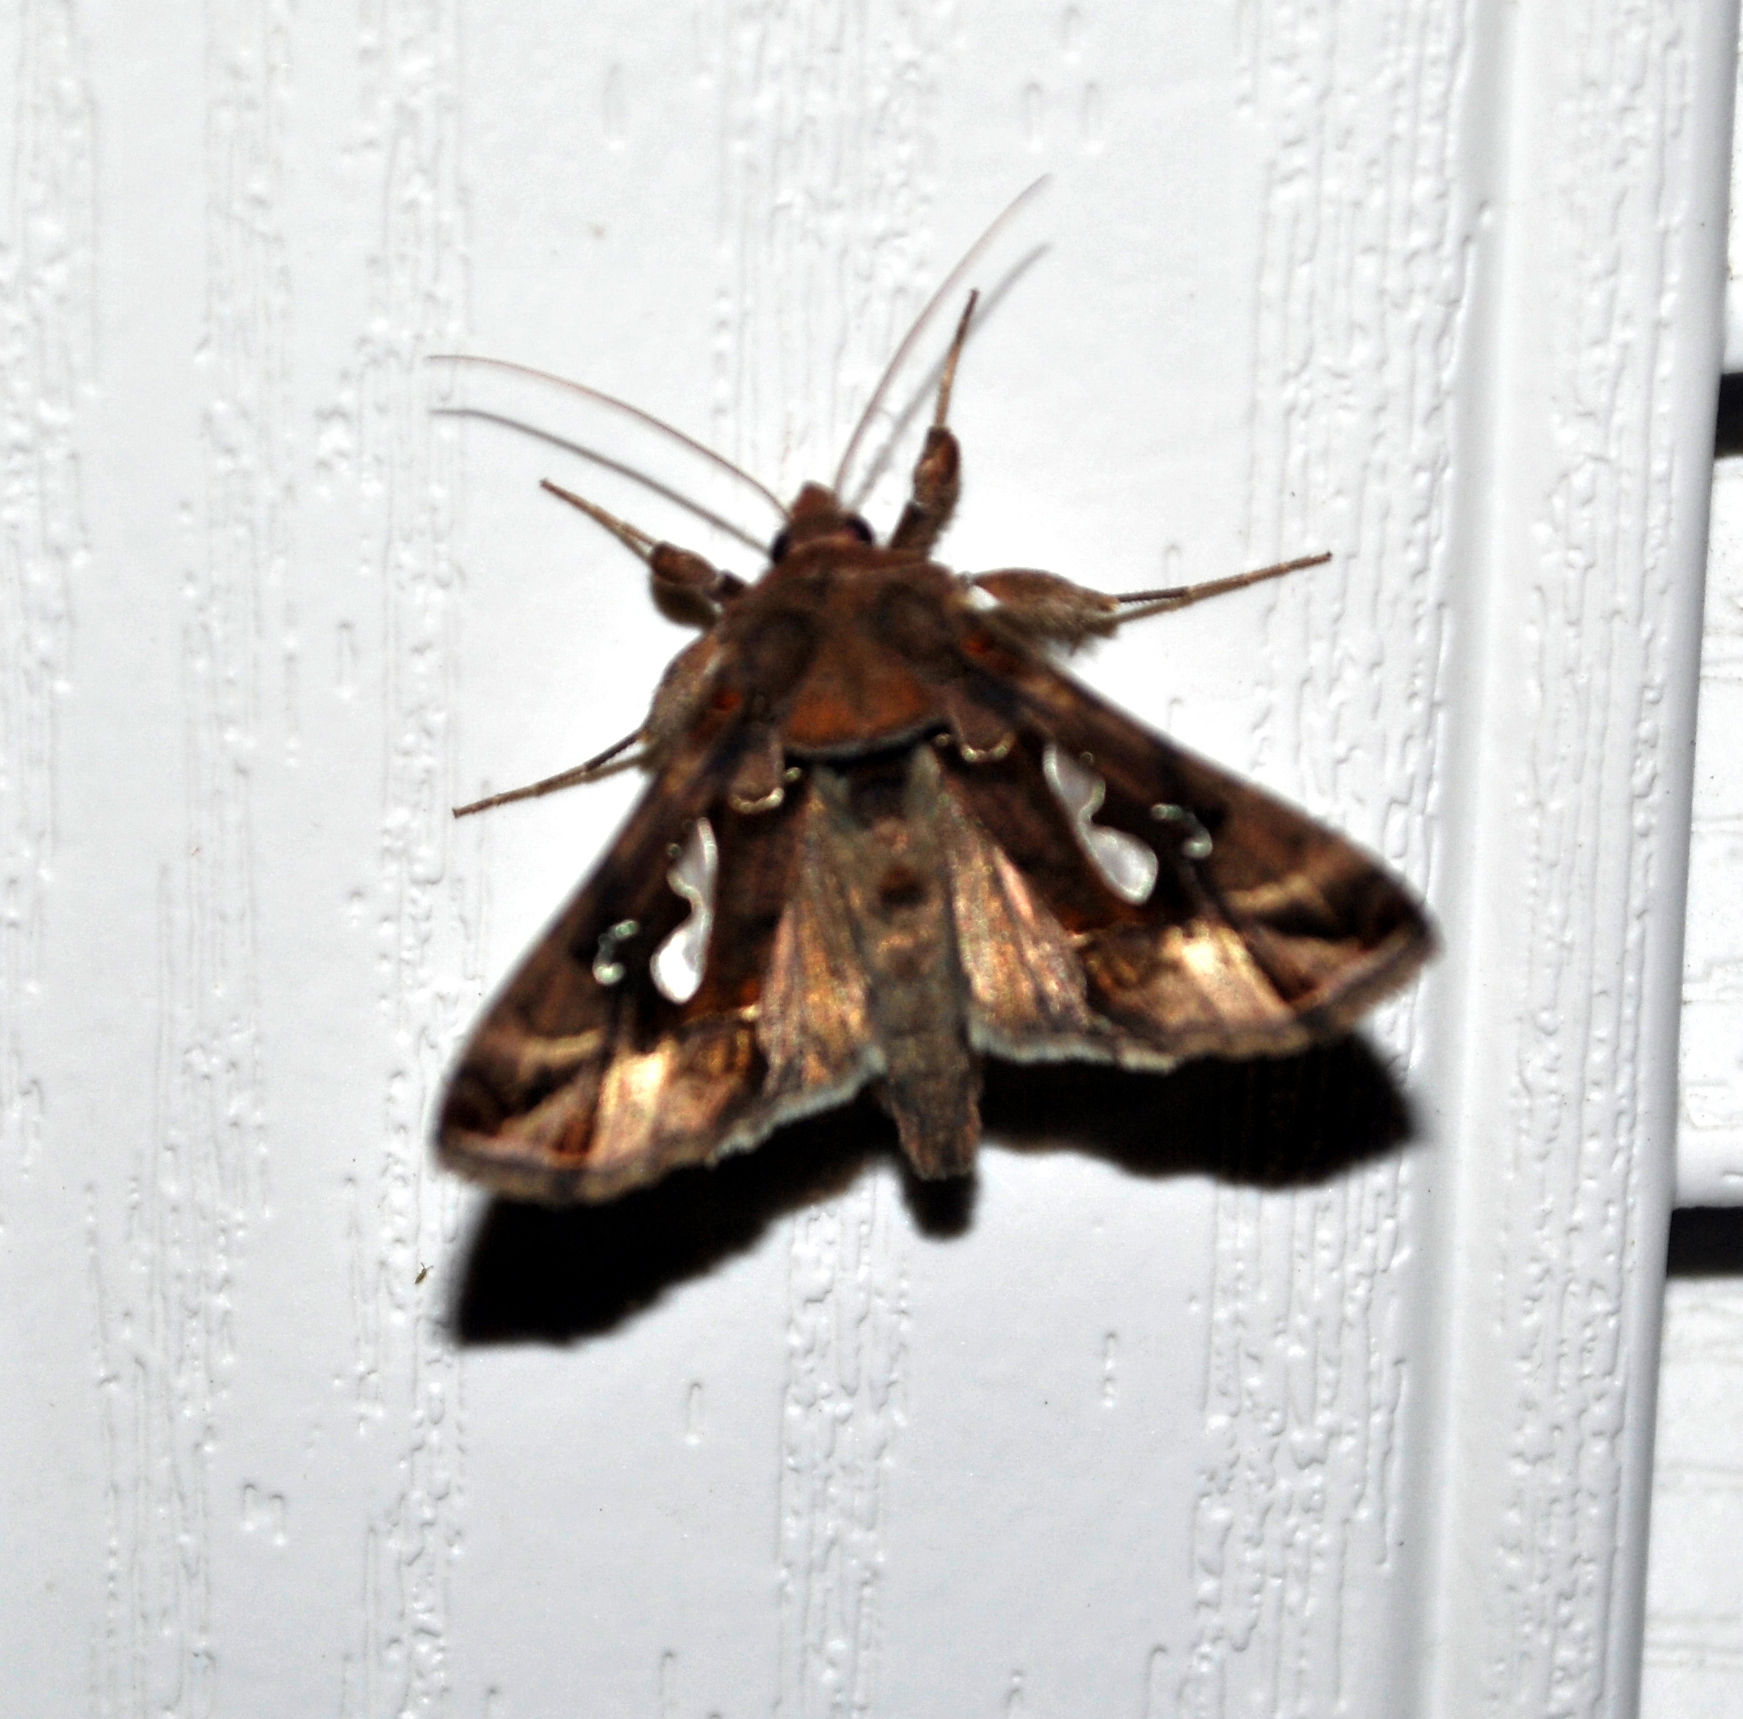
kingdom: Animalia
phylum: Arthropoda
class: Insecta
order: Lepidoptera
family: Noctuidae
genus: Megalographa
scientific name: Megalographa biloba
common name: Cutworm
